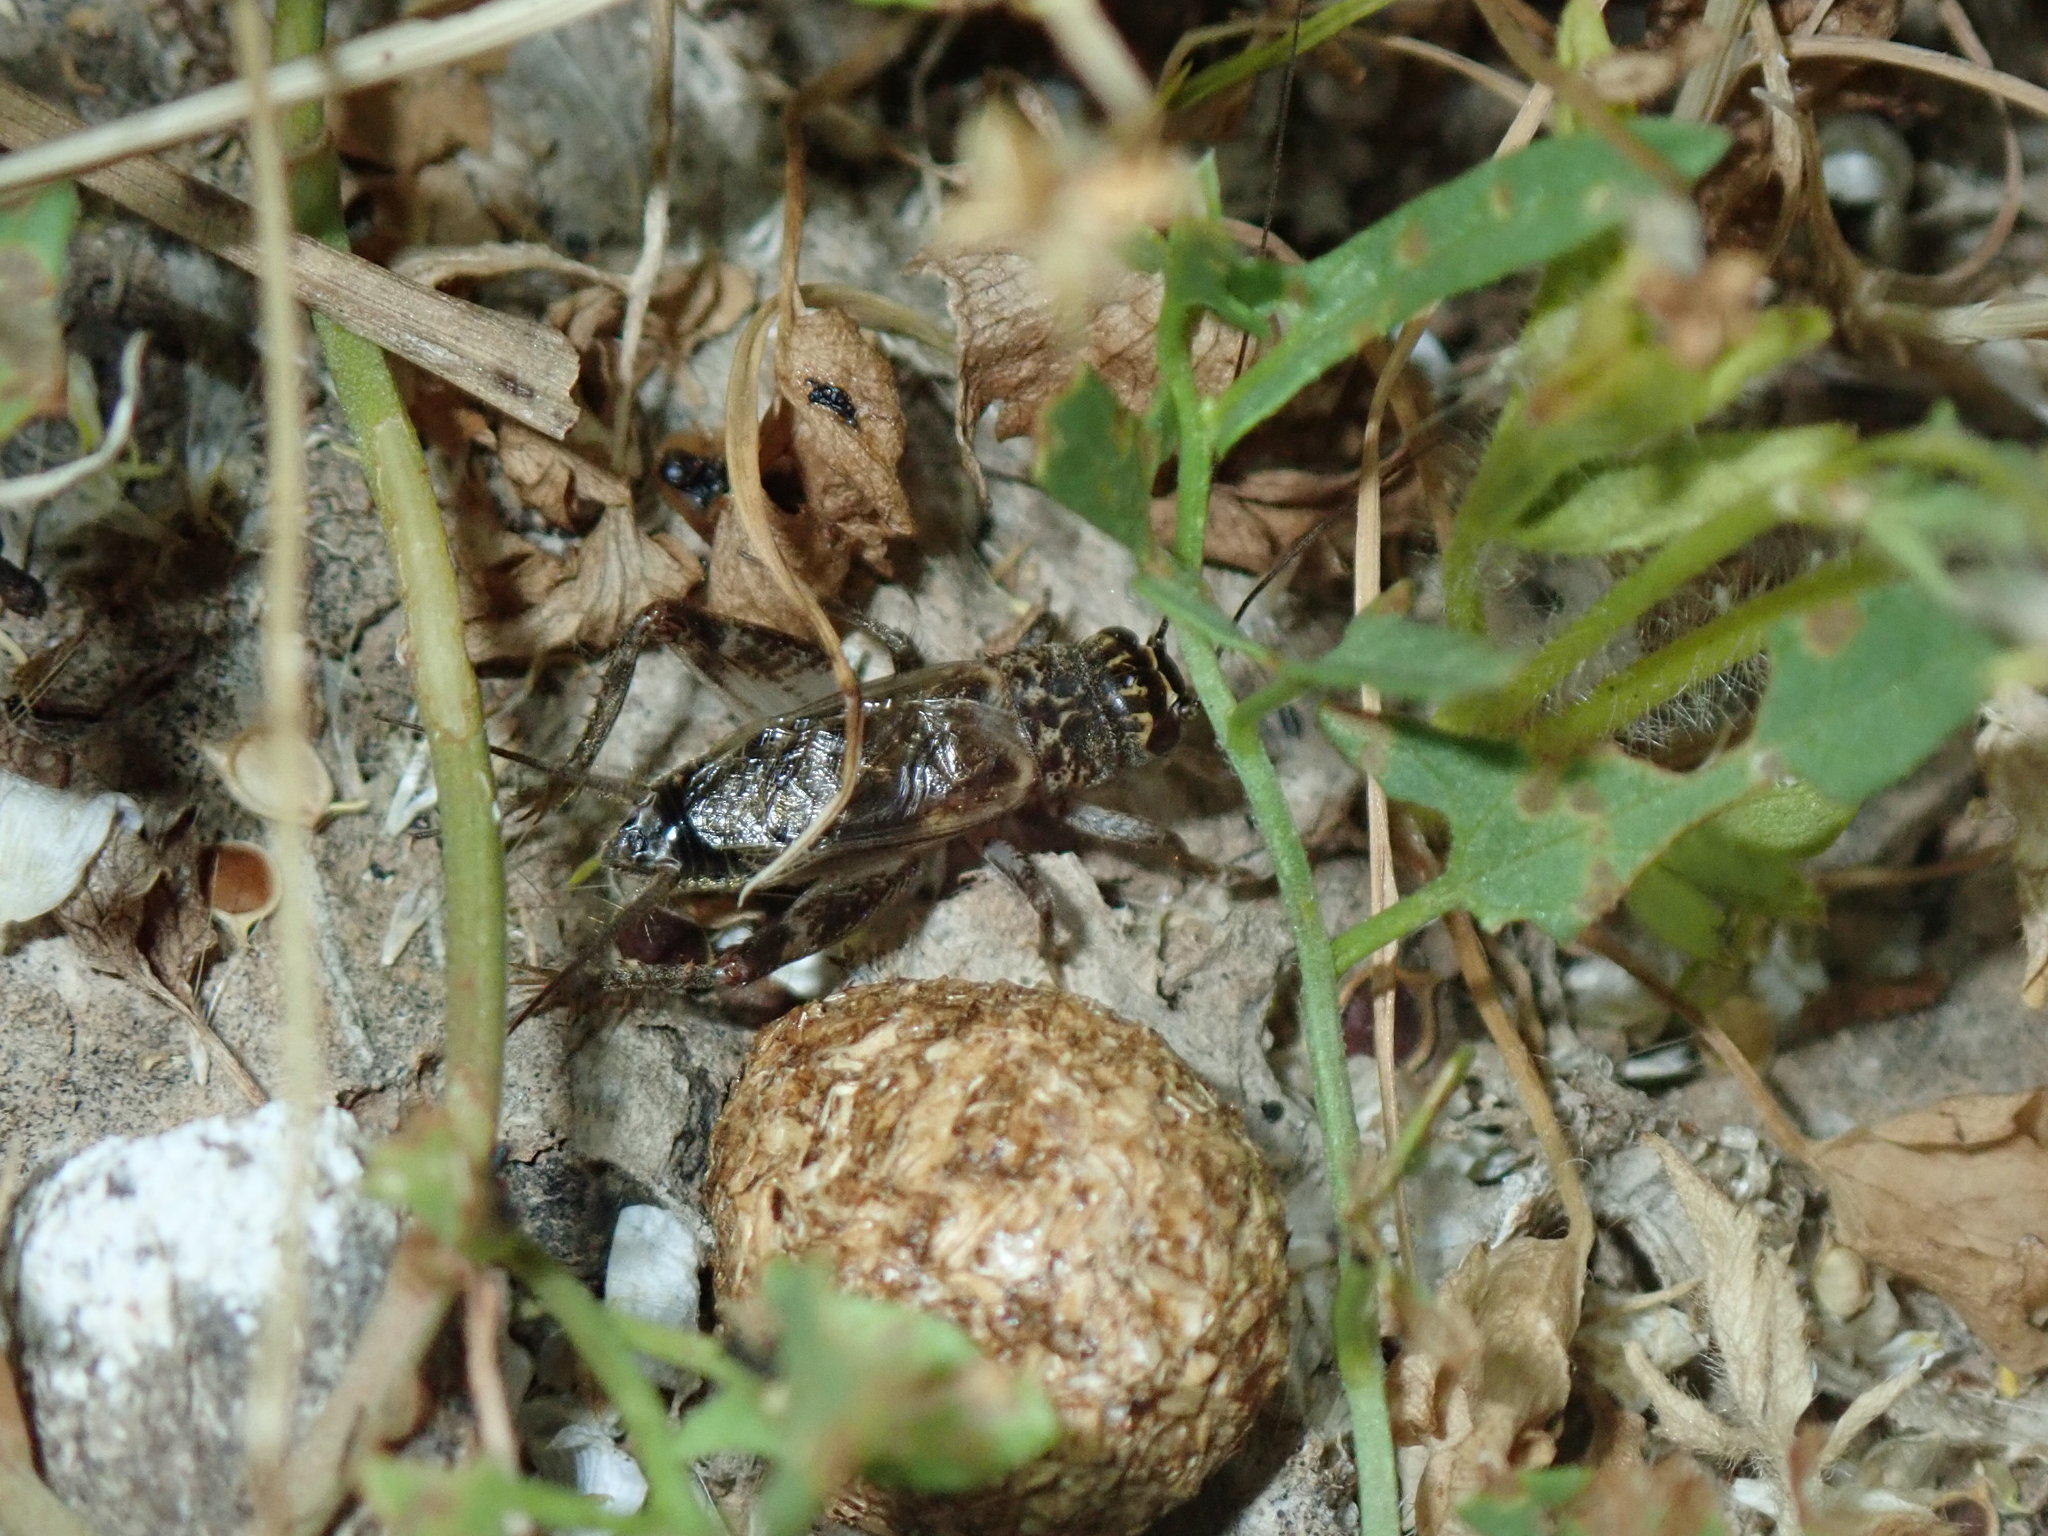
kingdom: Animalia
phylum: Arthropoda
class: Insecta
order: Orthoptera
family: Gryllidae
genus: Eumodicogryllus
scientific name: Eumodicogryllus bordigalensis
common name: Bordeaux cricket
